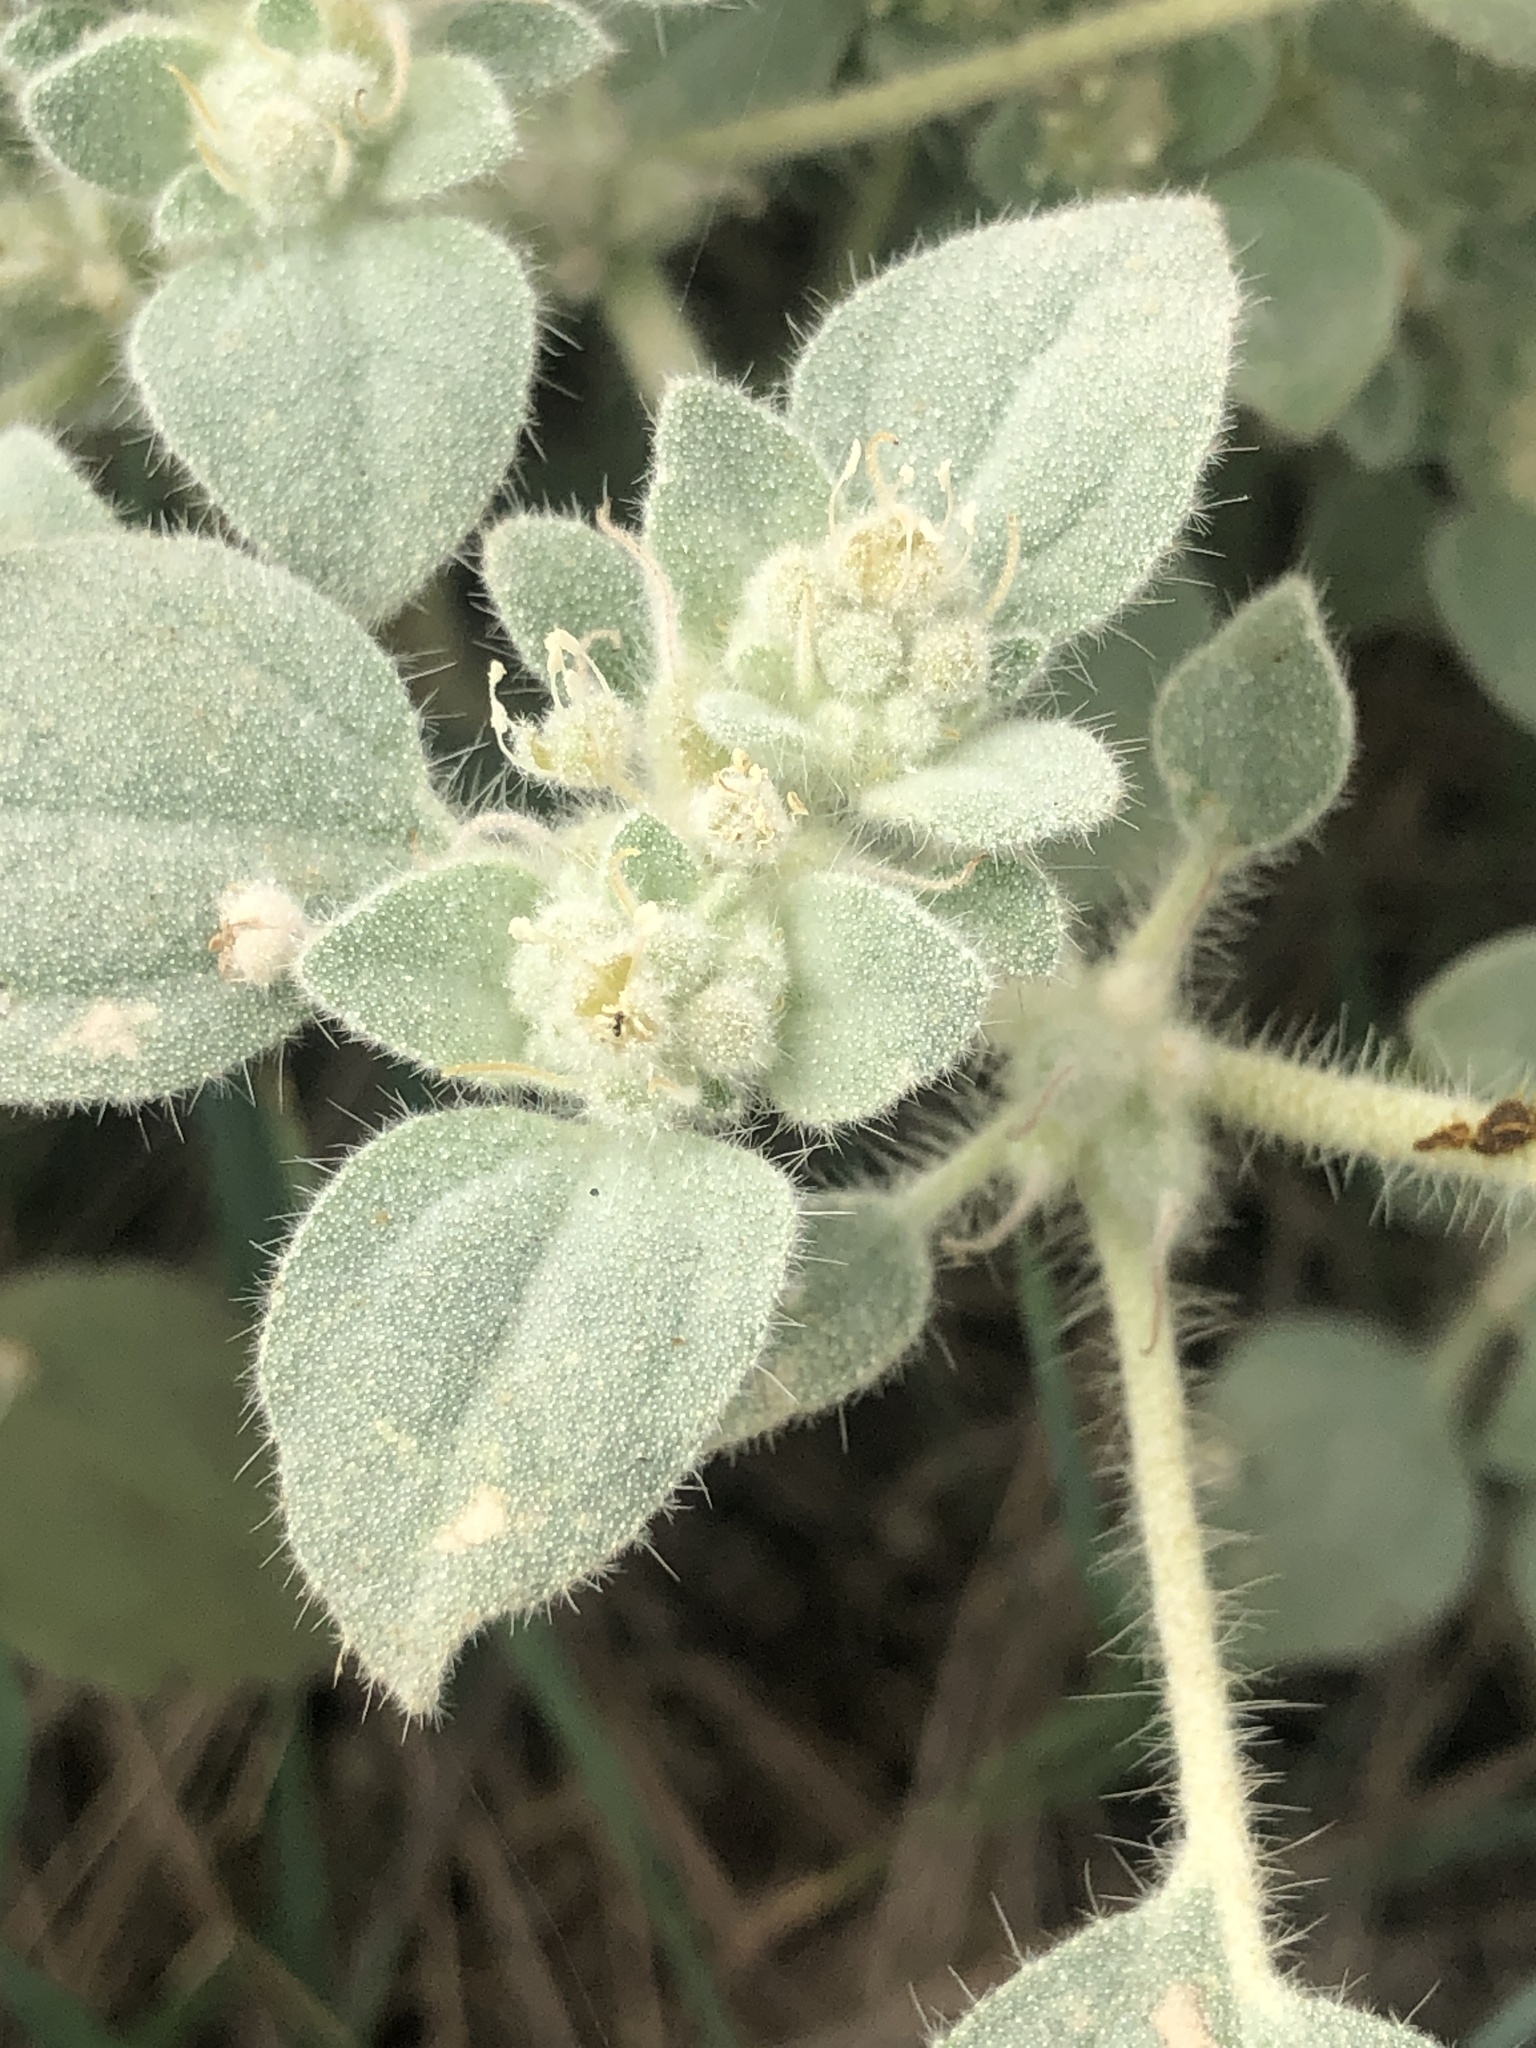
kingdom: Plantae
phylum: Tracheophyta
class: Magnoliopsida
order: Malpighiales
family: Euphorbiaceae
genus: Croton
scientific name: Croton setiger
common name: Dove weed
